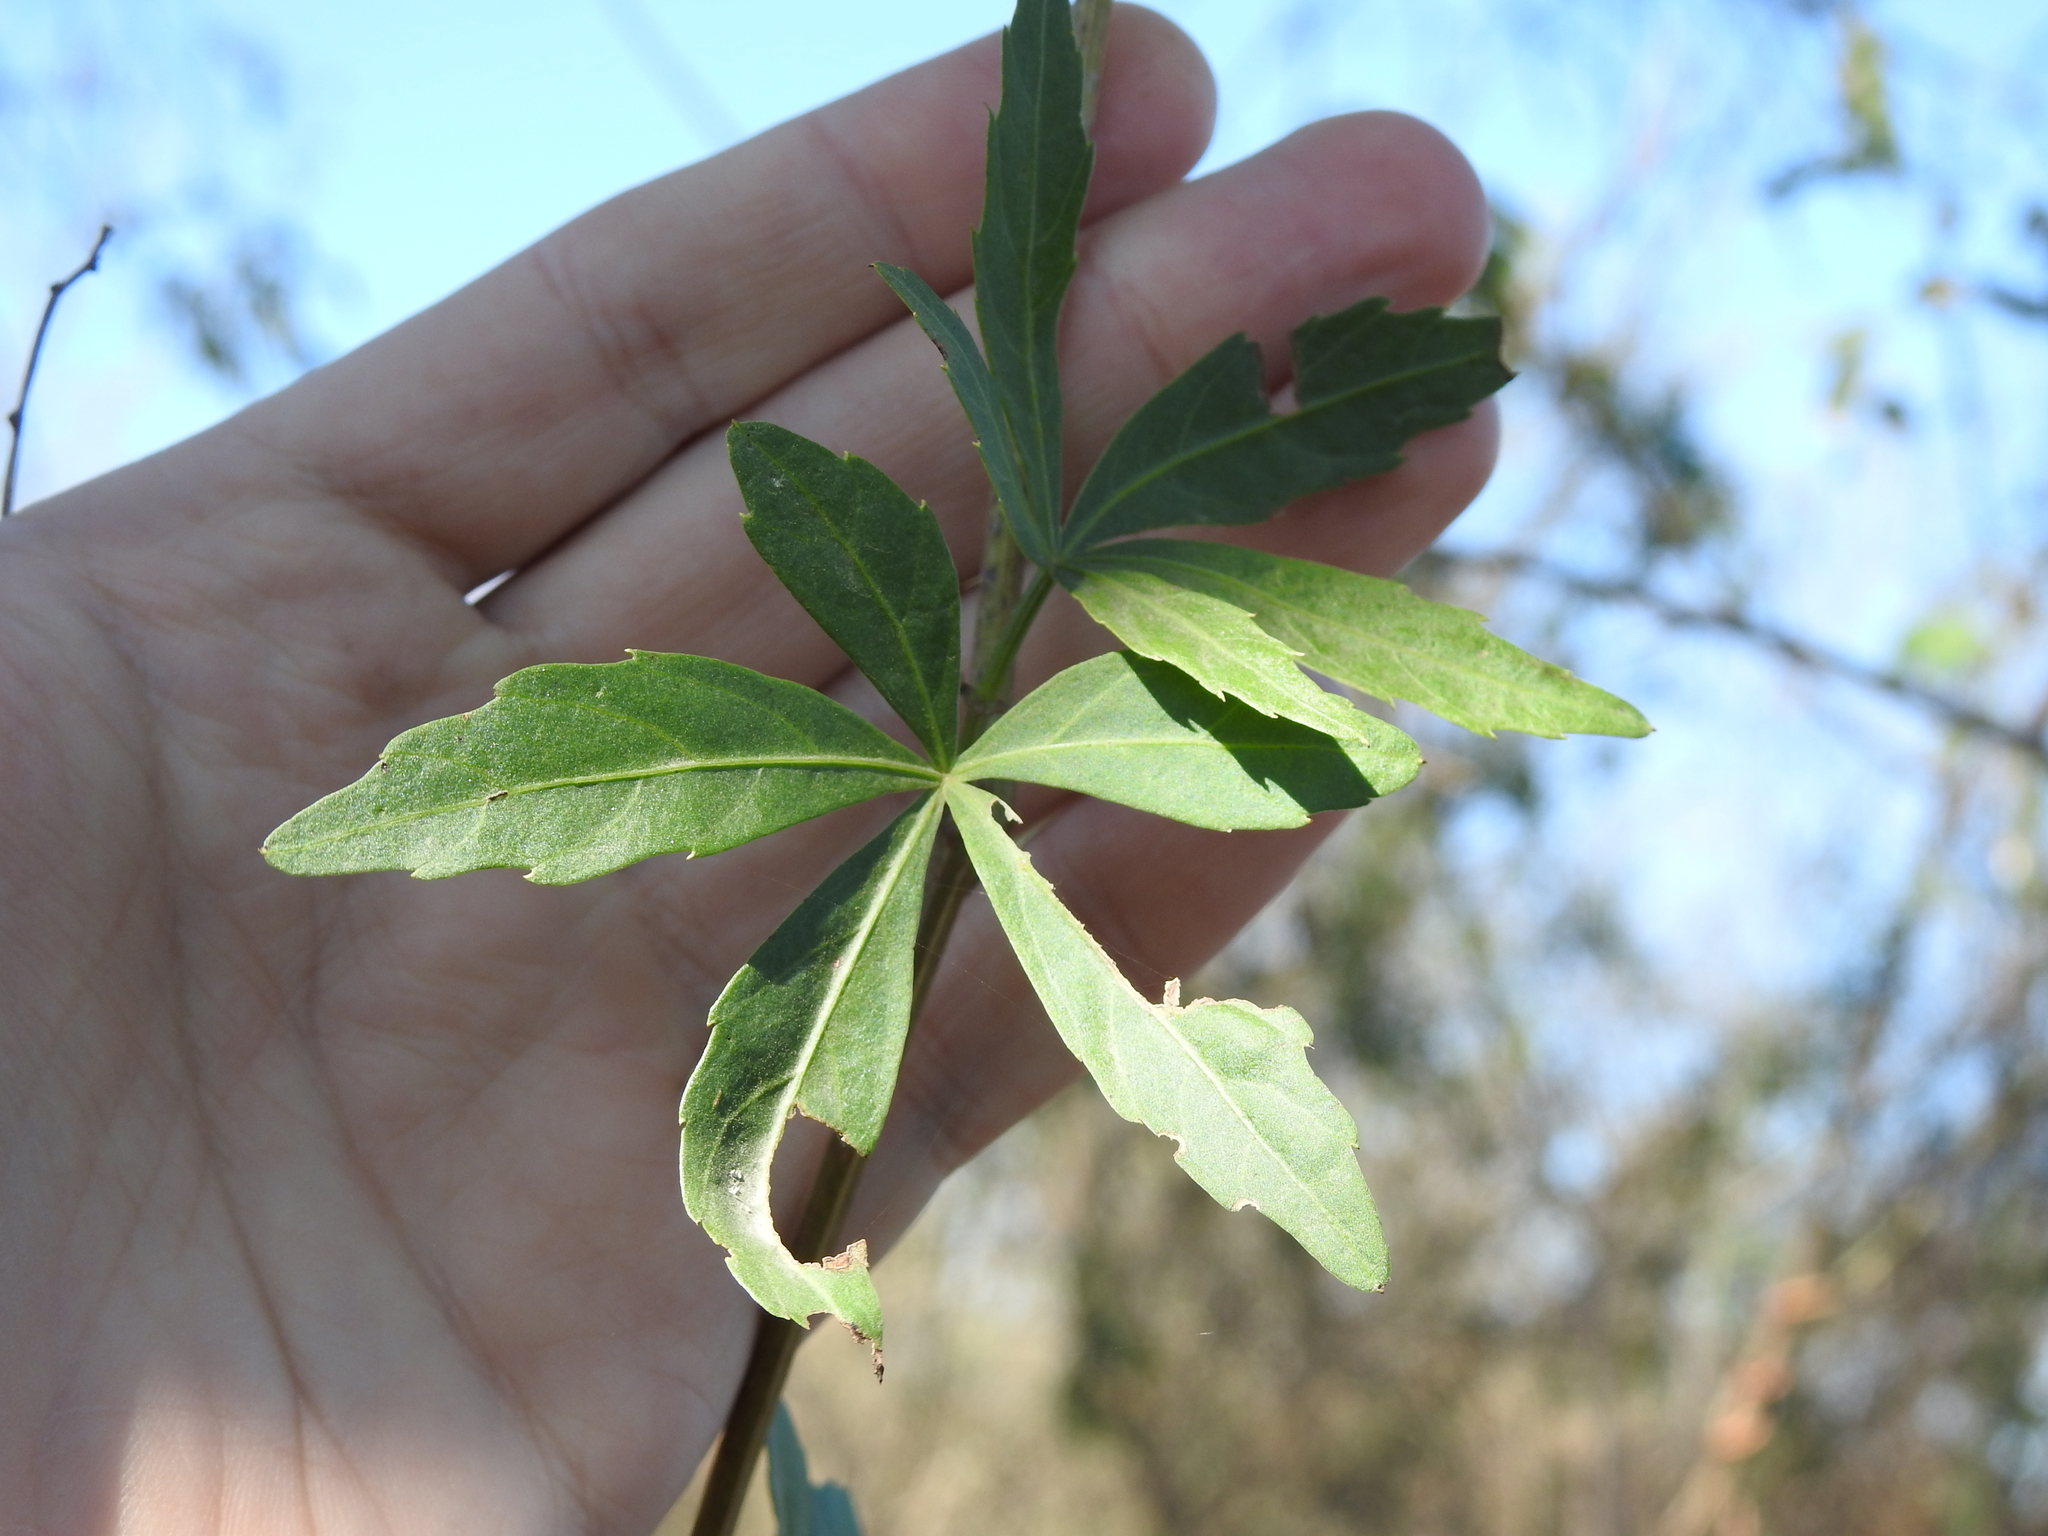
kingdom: Plantae
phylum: Tracheophyta
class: Magnoliopsida
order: Vitales
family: Vitaceae
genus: Clematicissus
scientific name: Clematicissus striata
